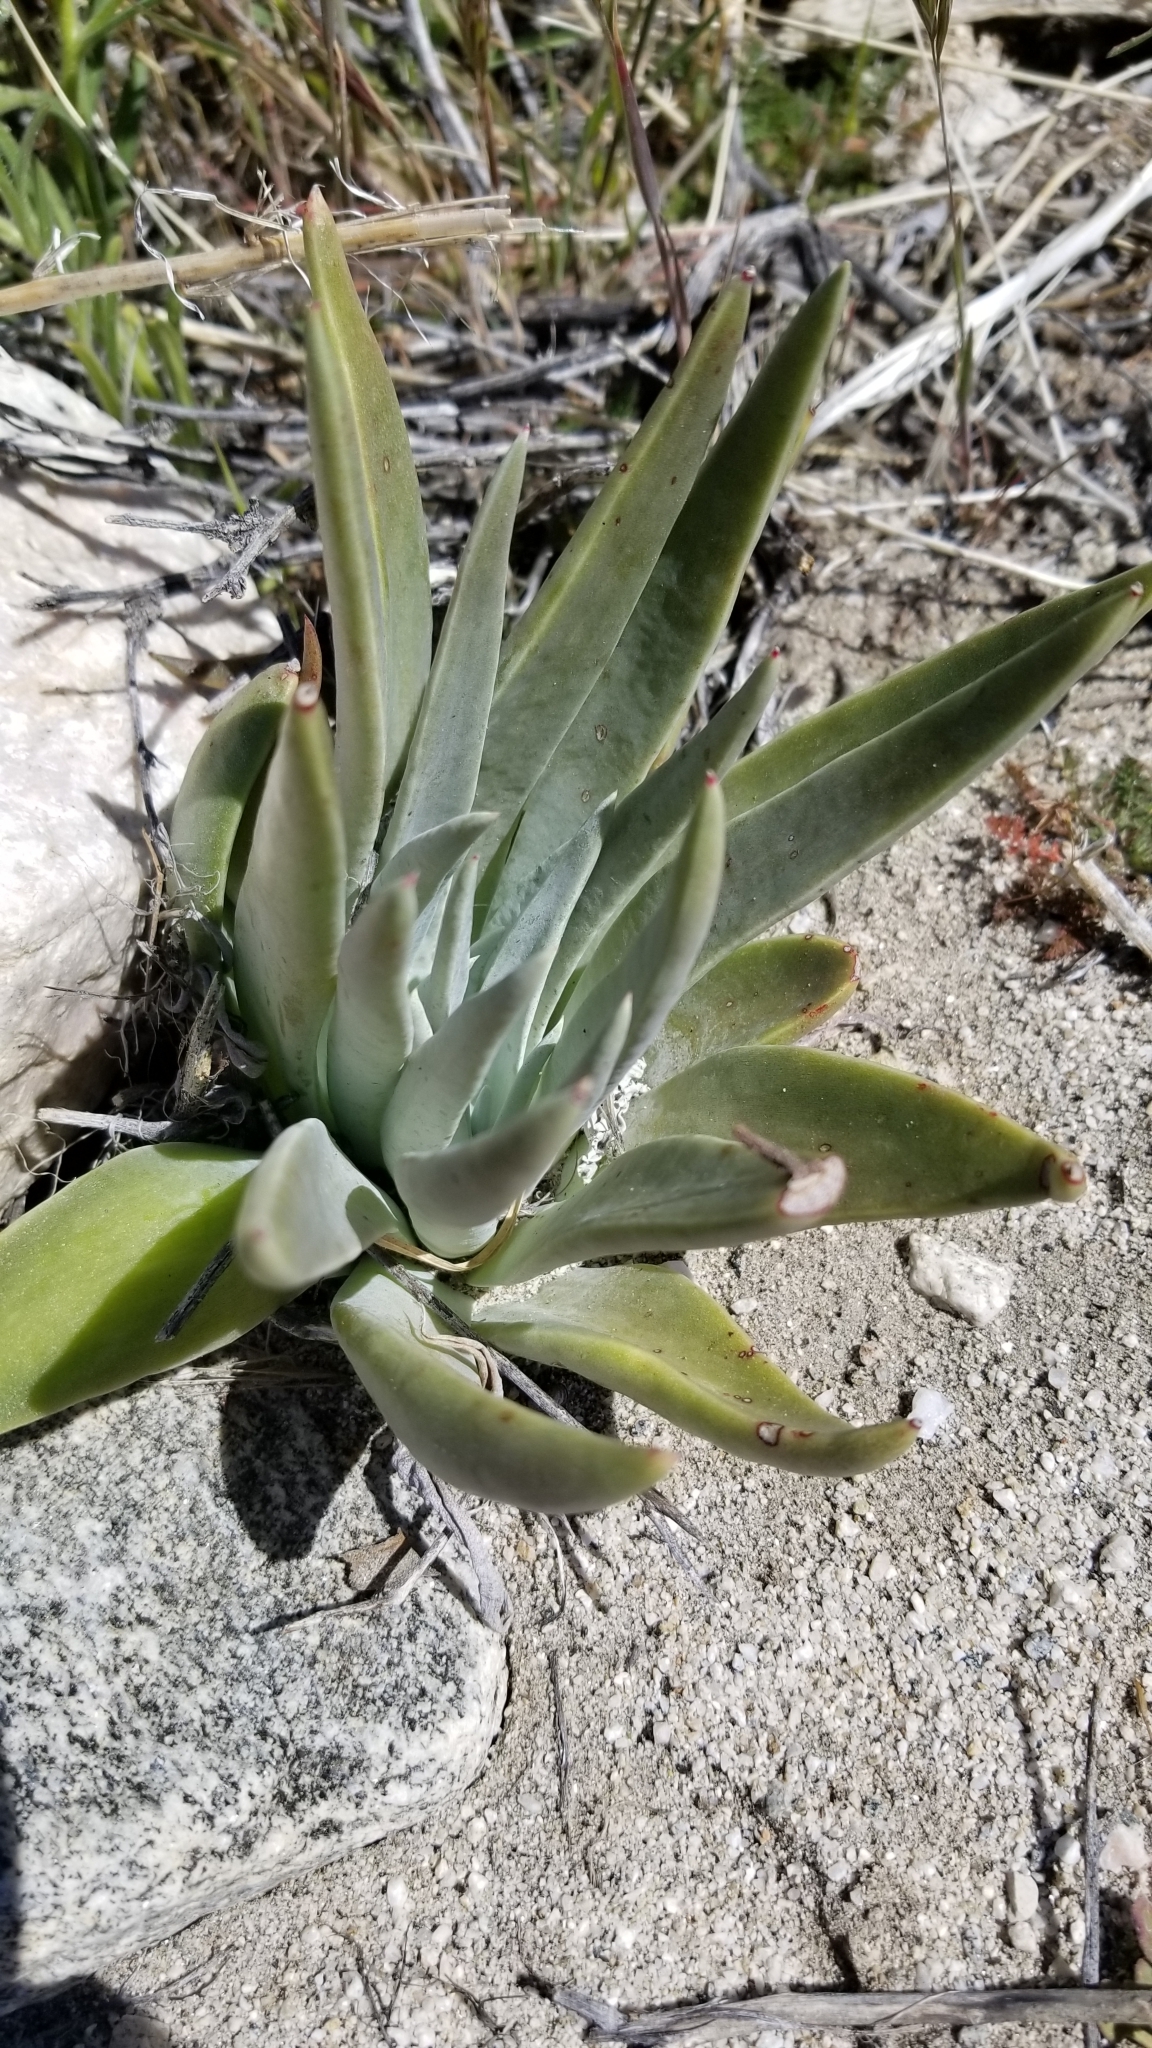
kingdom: Plantae
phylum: Tracheophyta
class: Magnoliopsida
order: Saxifragales
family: Crassulaceae
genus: Dudleya
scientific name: Dudleya saxosa
